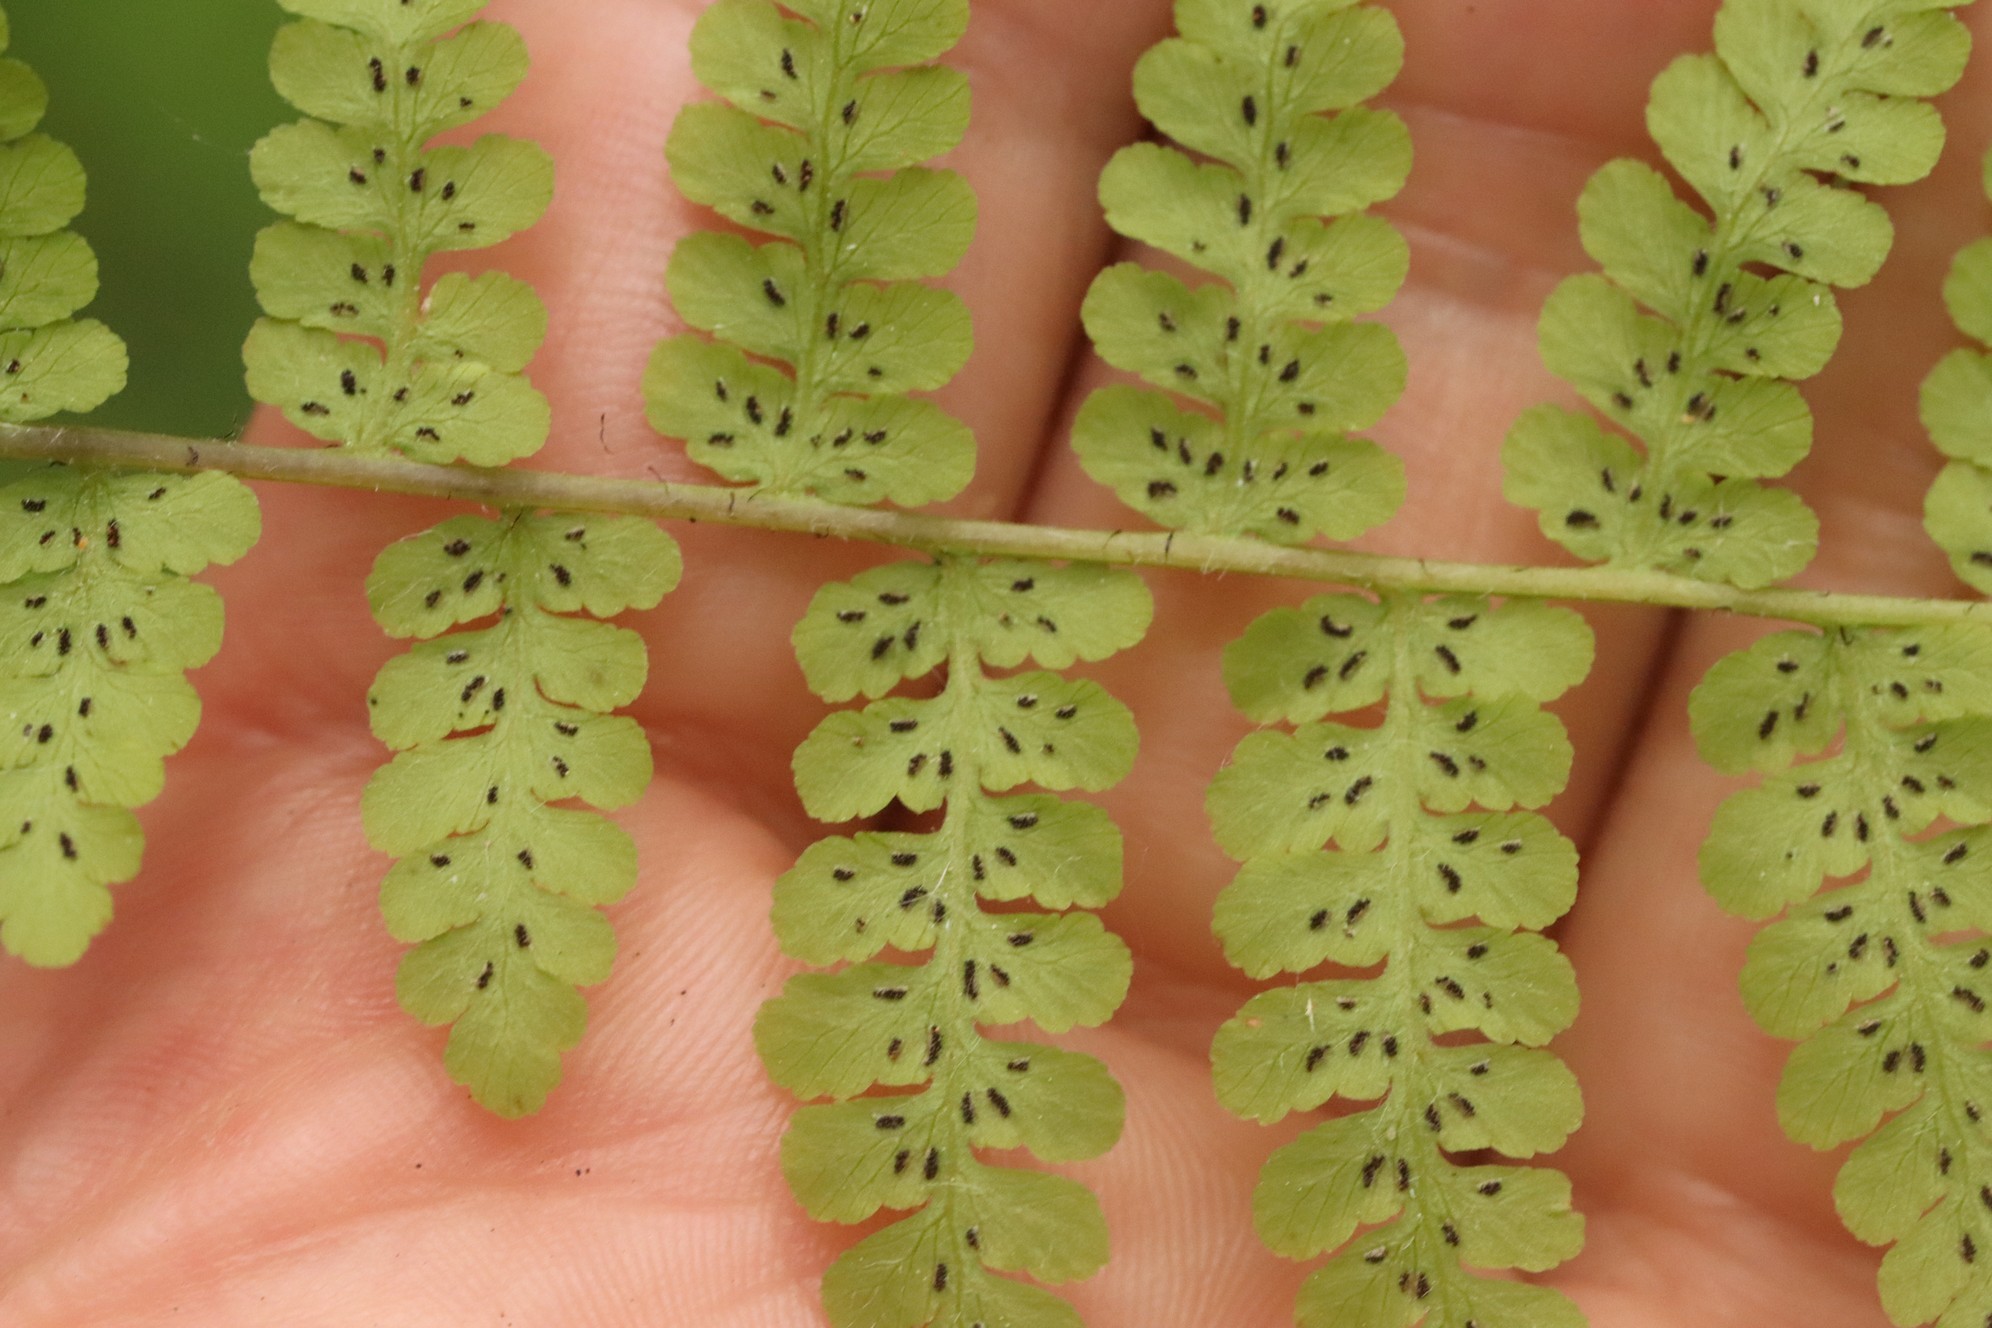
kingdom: Plantae
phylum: Tracheophyta
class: Polypodiopsida
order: Polypodiales
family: Athyriaceae
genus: Diplazium
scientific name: Diplazium sibiricum
